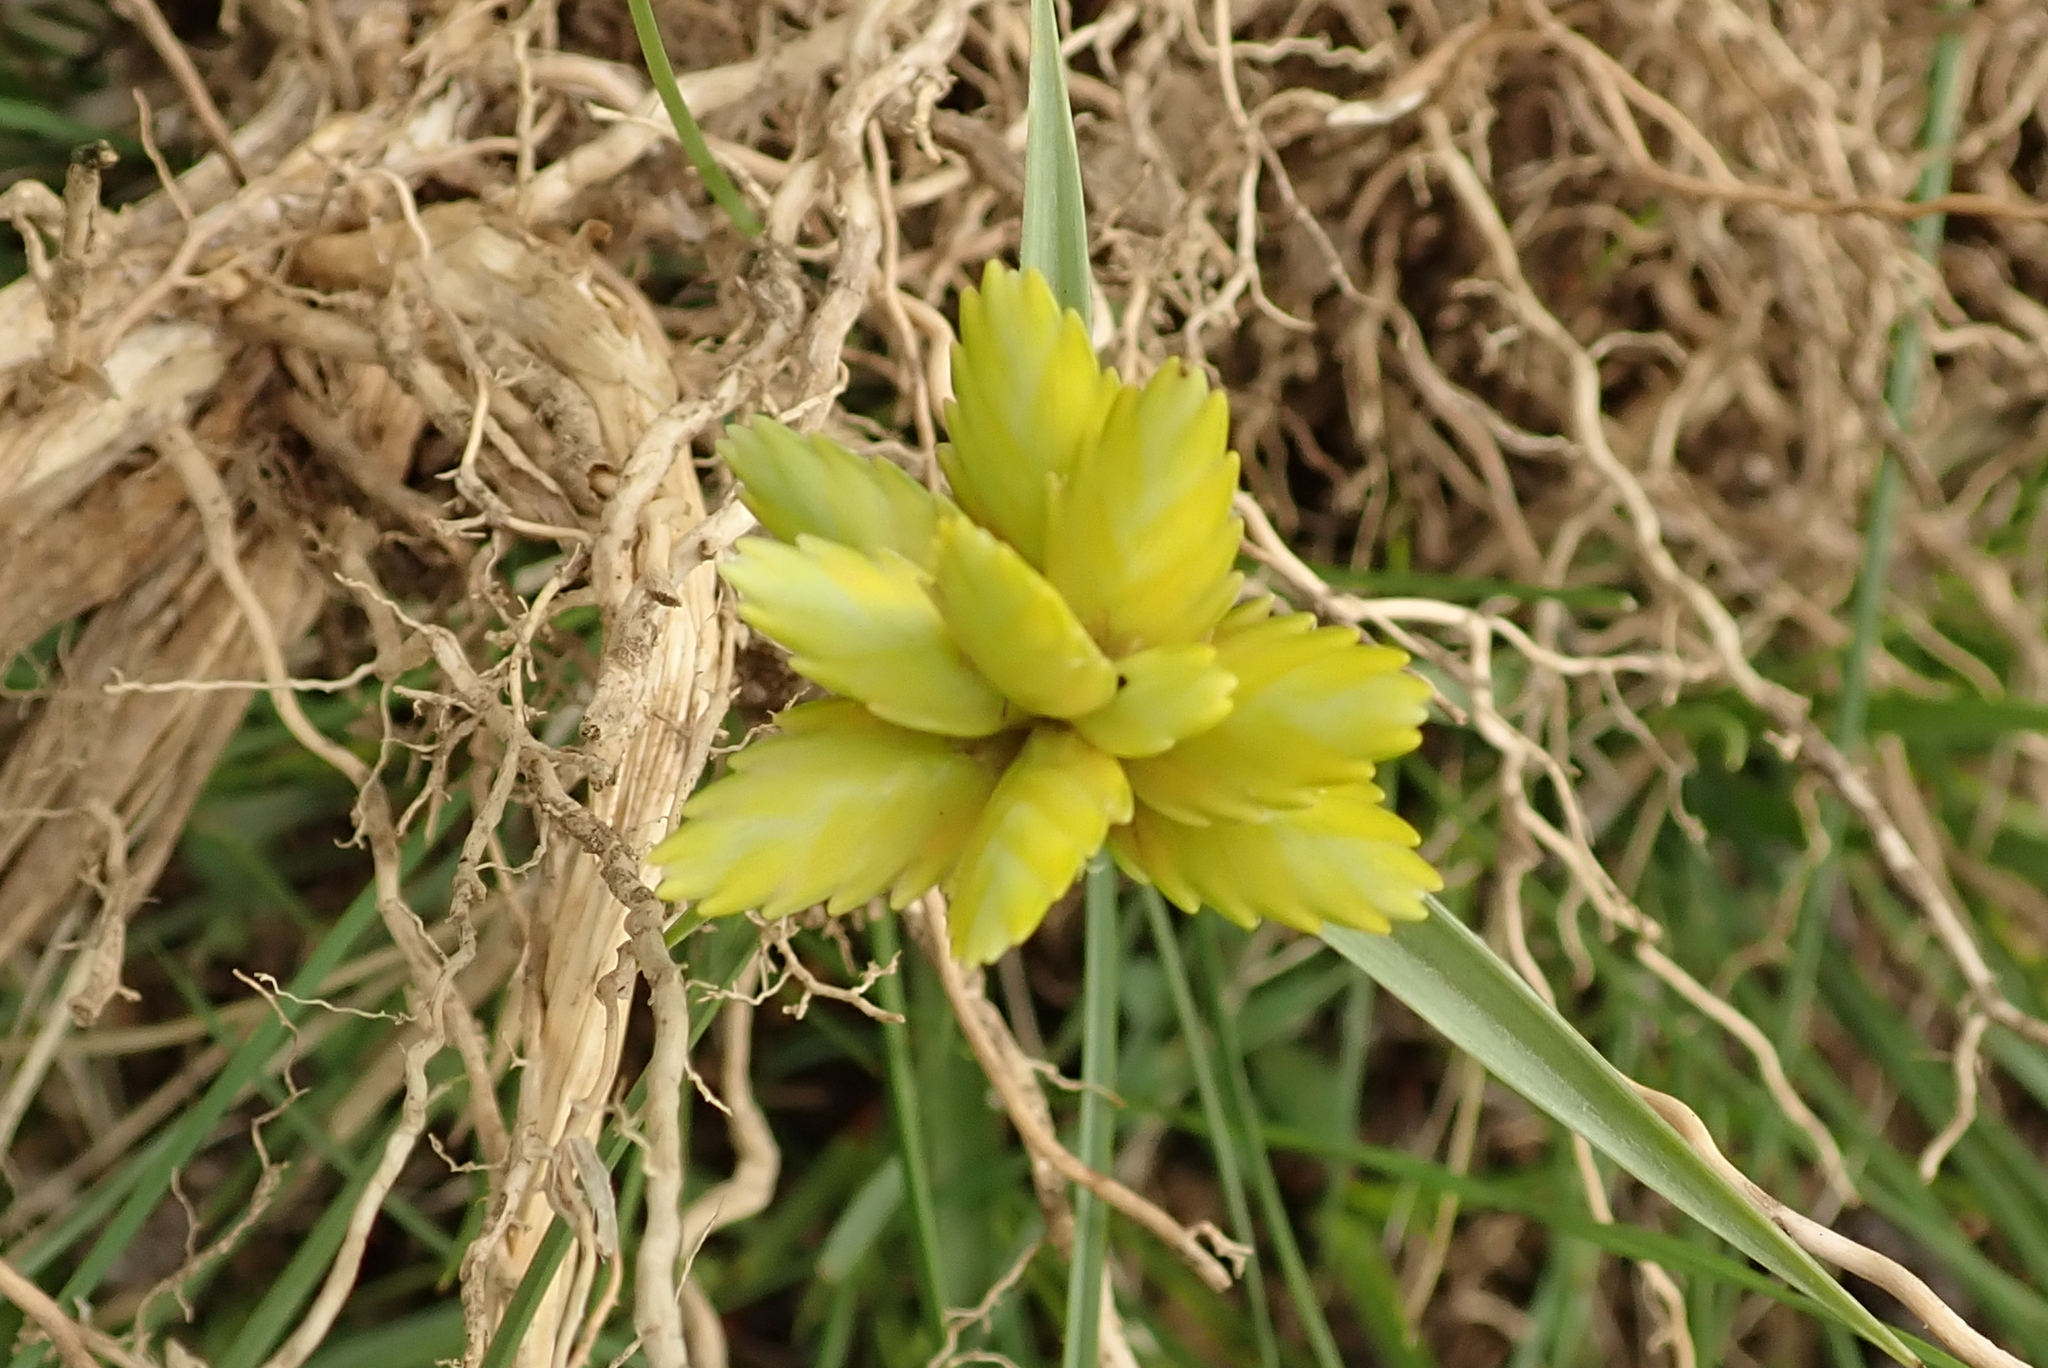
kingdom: Plantae
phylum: Tracheophyta
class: Liliopsida
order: Poales
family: Cyperaceae
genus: Cyperus
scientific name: Cyperus sphaerocephalus
